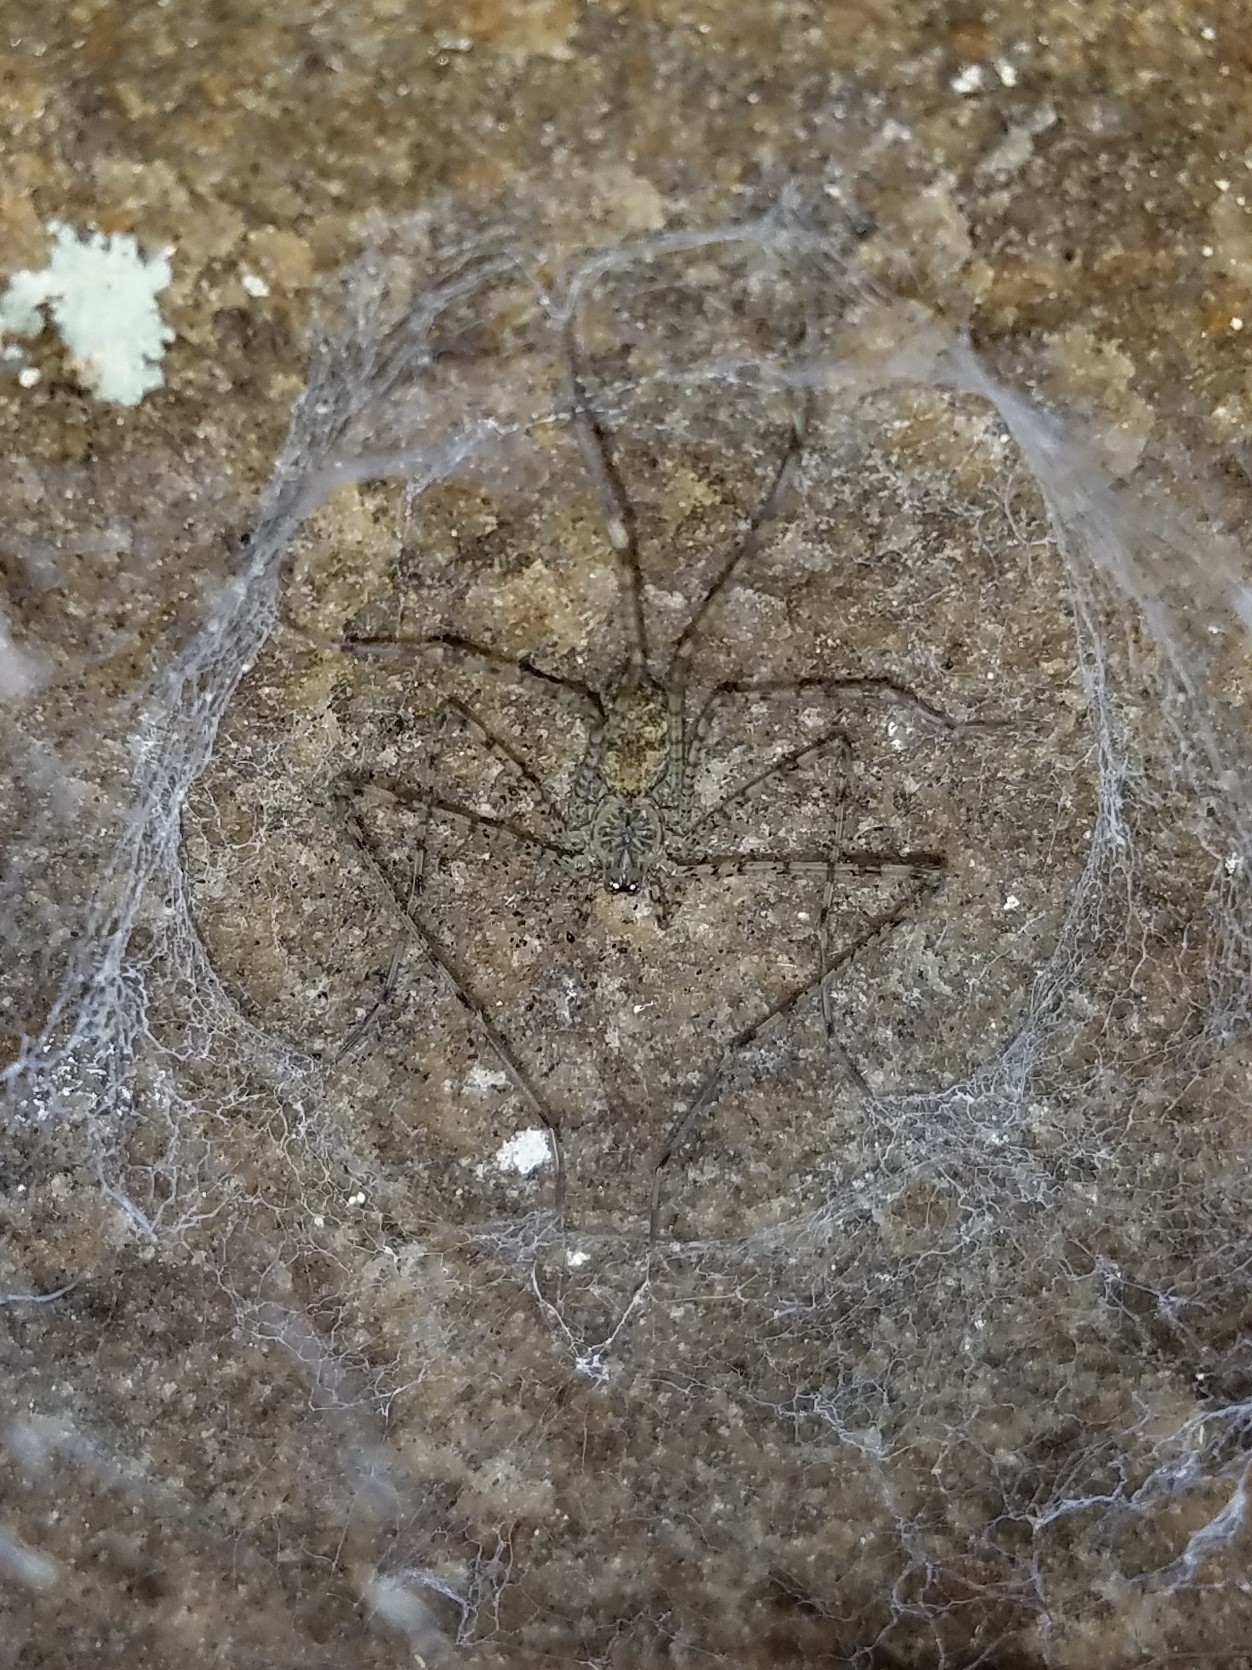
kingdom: Animalia
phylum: Arthropoda
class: Arachnida
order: Araneae
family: Hypochilidae
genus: Hypochilus
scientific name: Hypochilus thorelli
